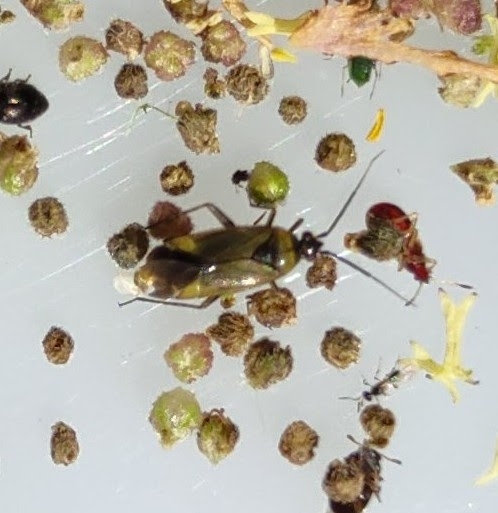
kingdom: Animalia
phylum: Arthropoda
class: Insecta
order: Hemiptera
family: Miridae
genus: Plagiognathus
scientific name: Plagiognathus arbustorum
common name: Plant bug
